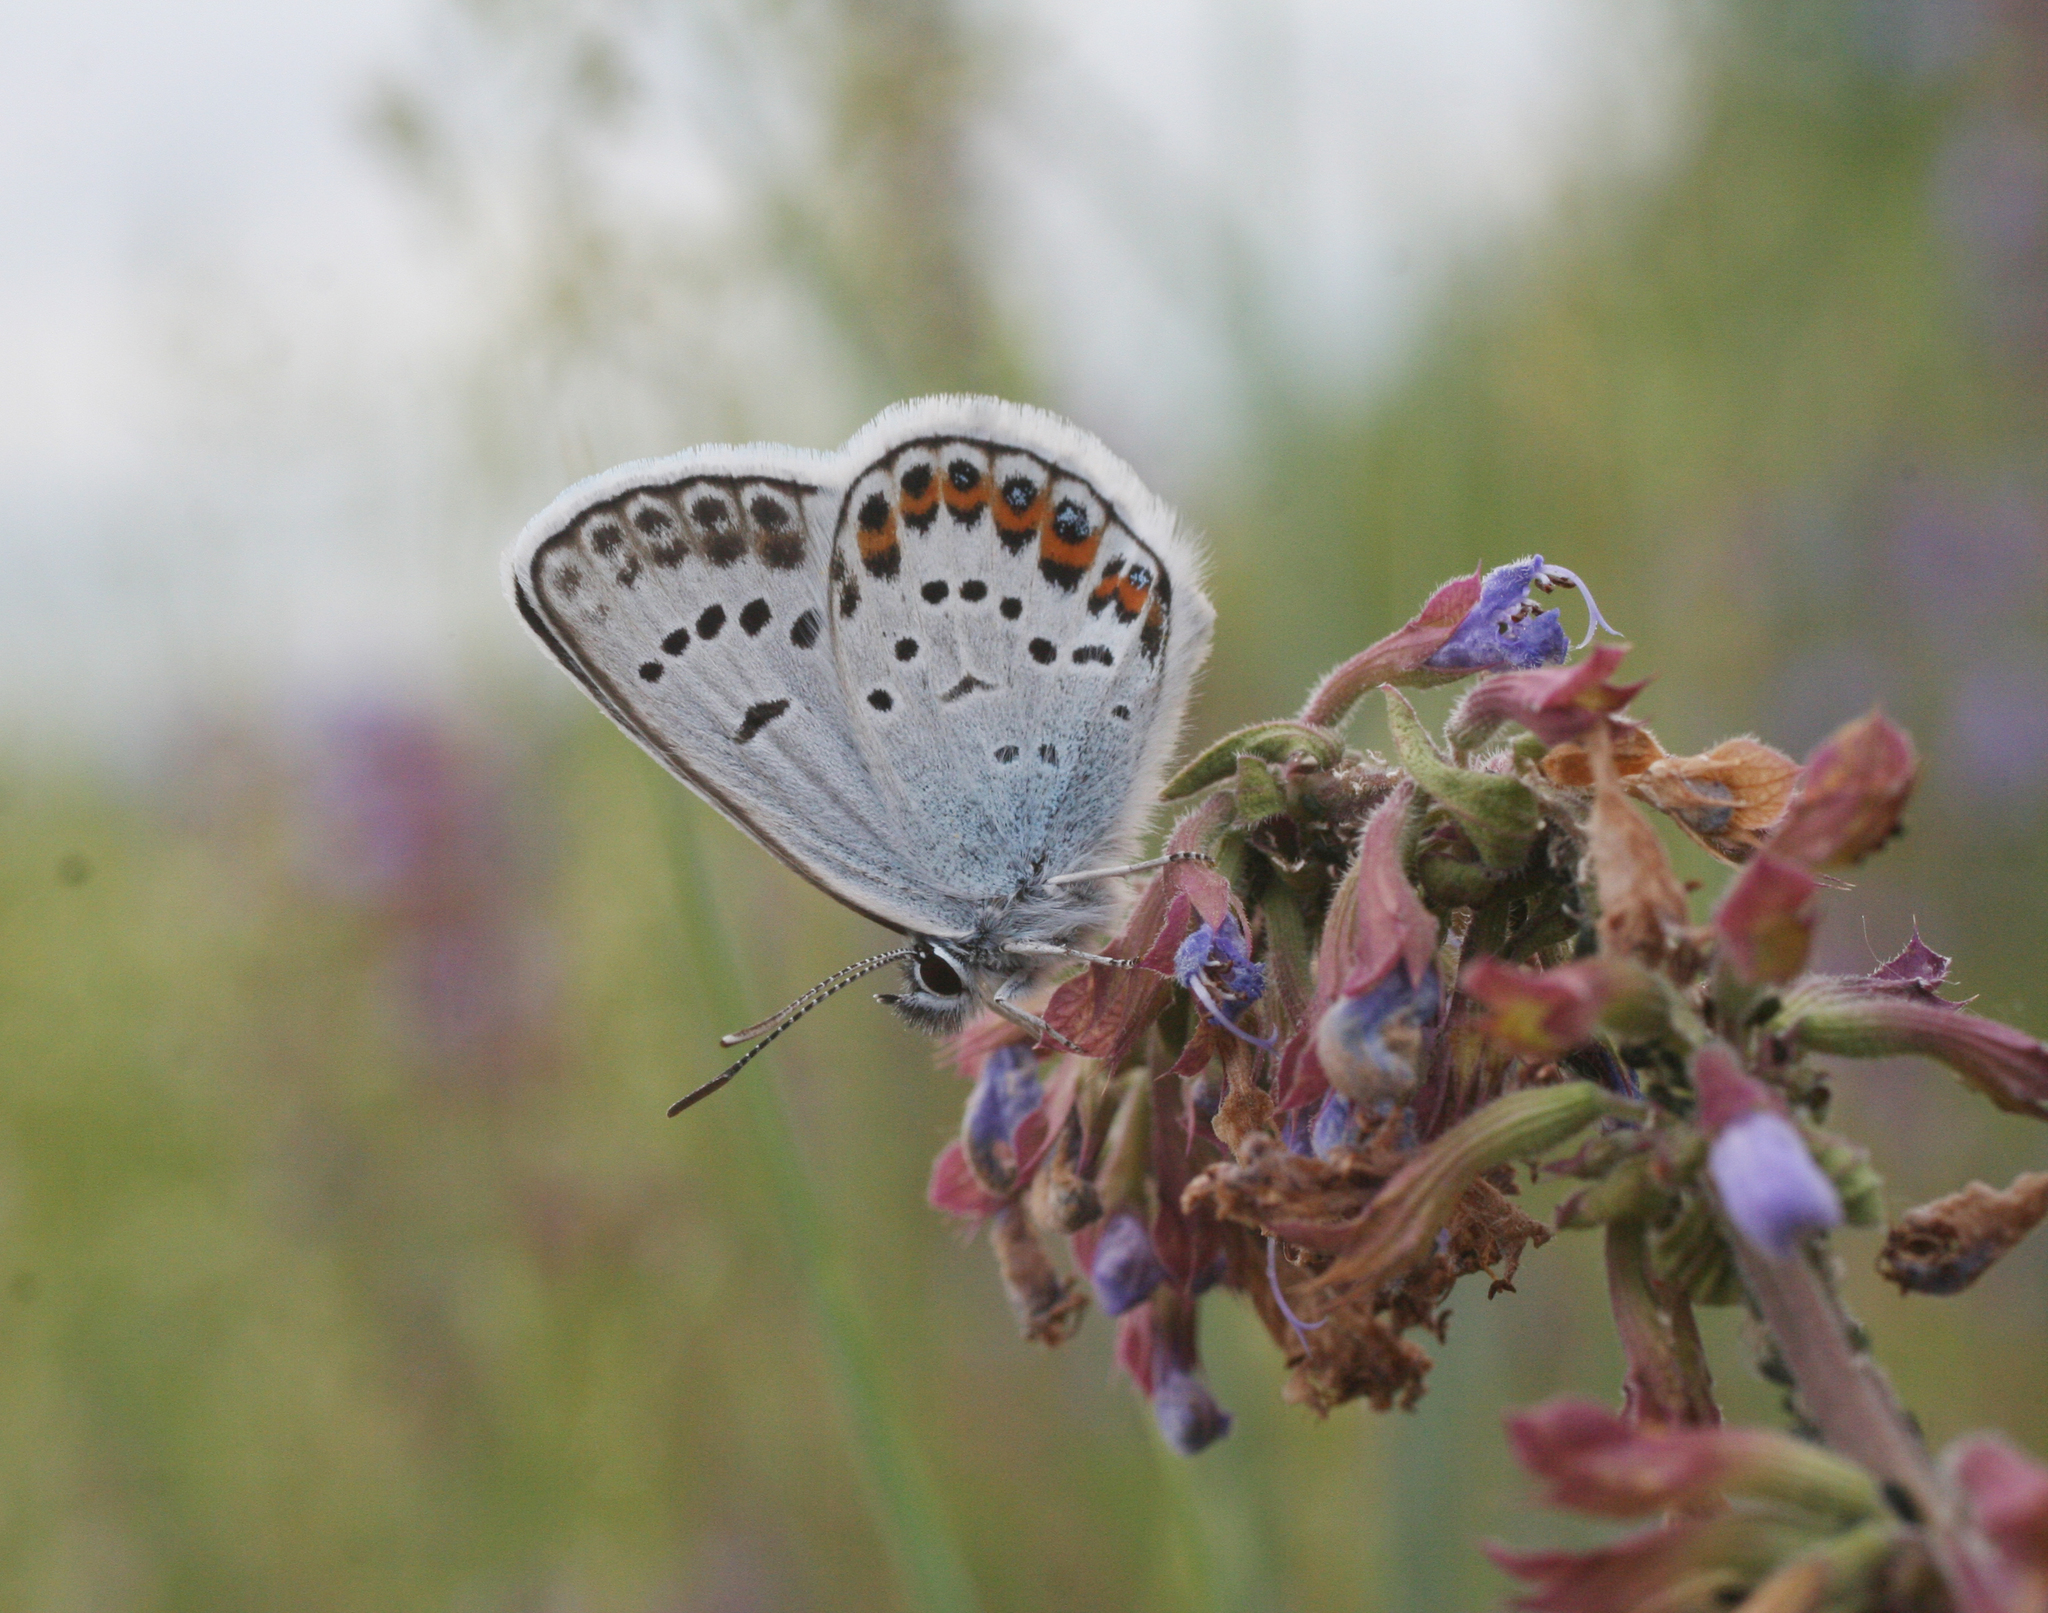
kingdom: Plantae
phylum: Tracheophyta
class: Magnoliopsida
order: Lamiales
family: Lamiaceae
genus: Dracocephalum
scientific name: Dracocephalum nutans
